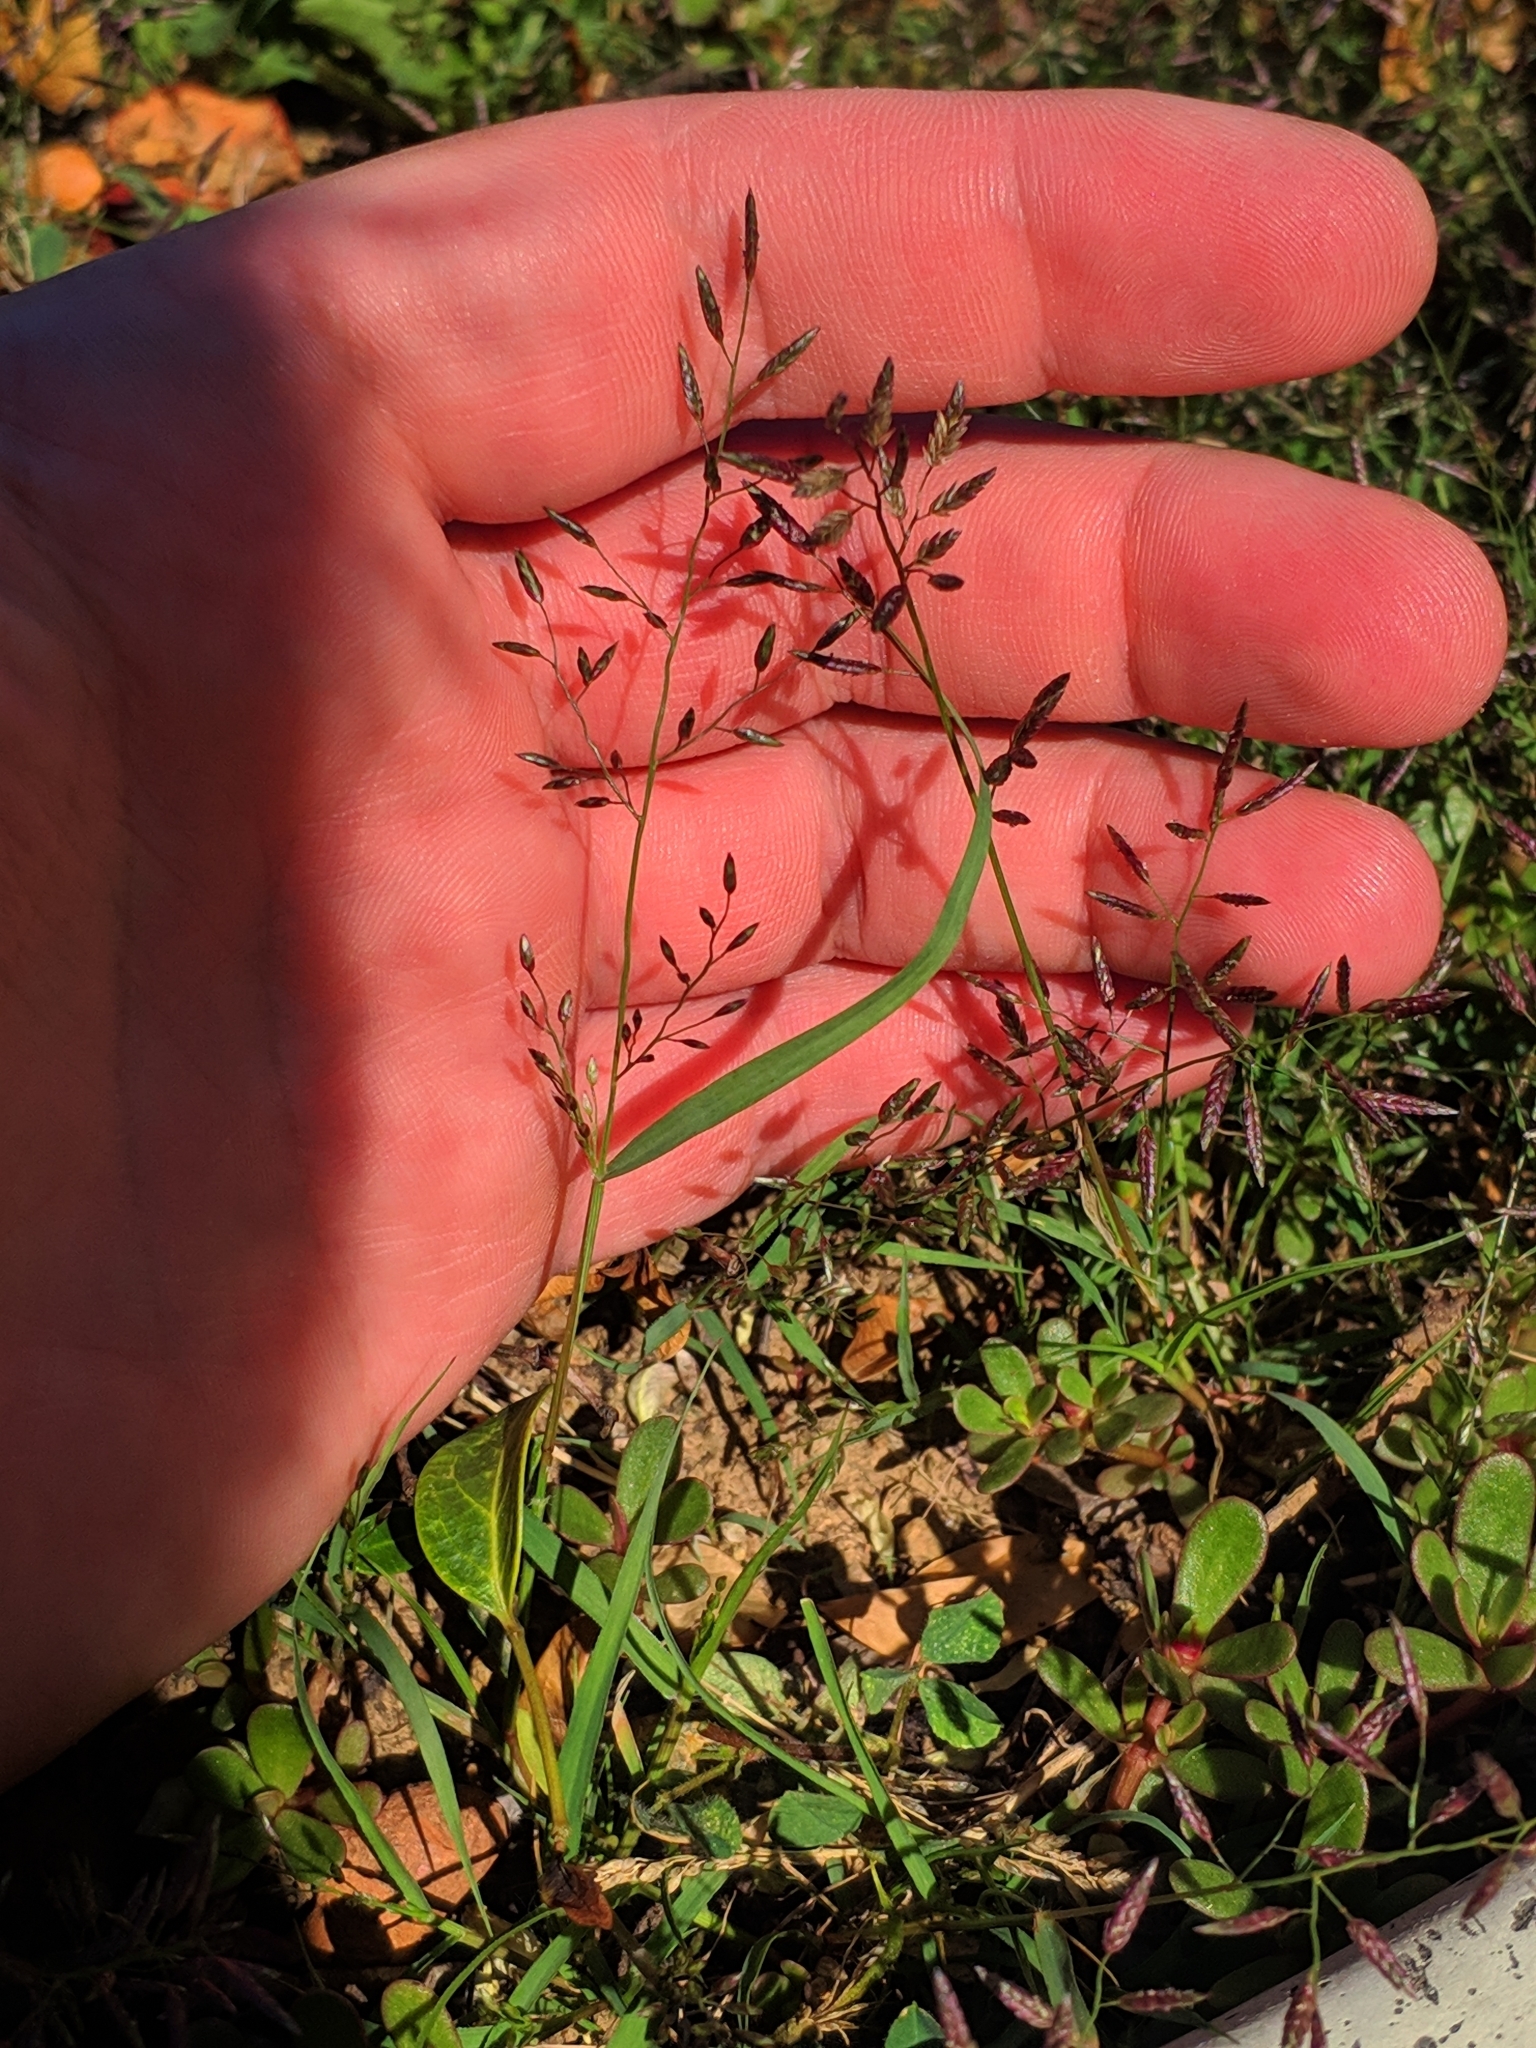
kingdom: Plantae
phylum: Tracheophyta
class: Liliopsida
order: Poales
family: Poaceae
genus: Eragrostis
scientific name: Eragrostis minor
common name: Small love-grass
